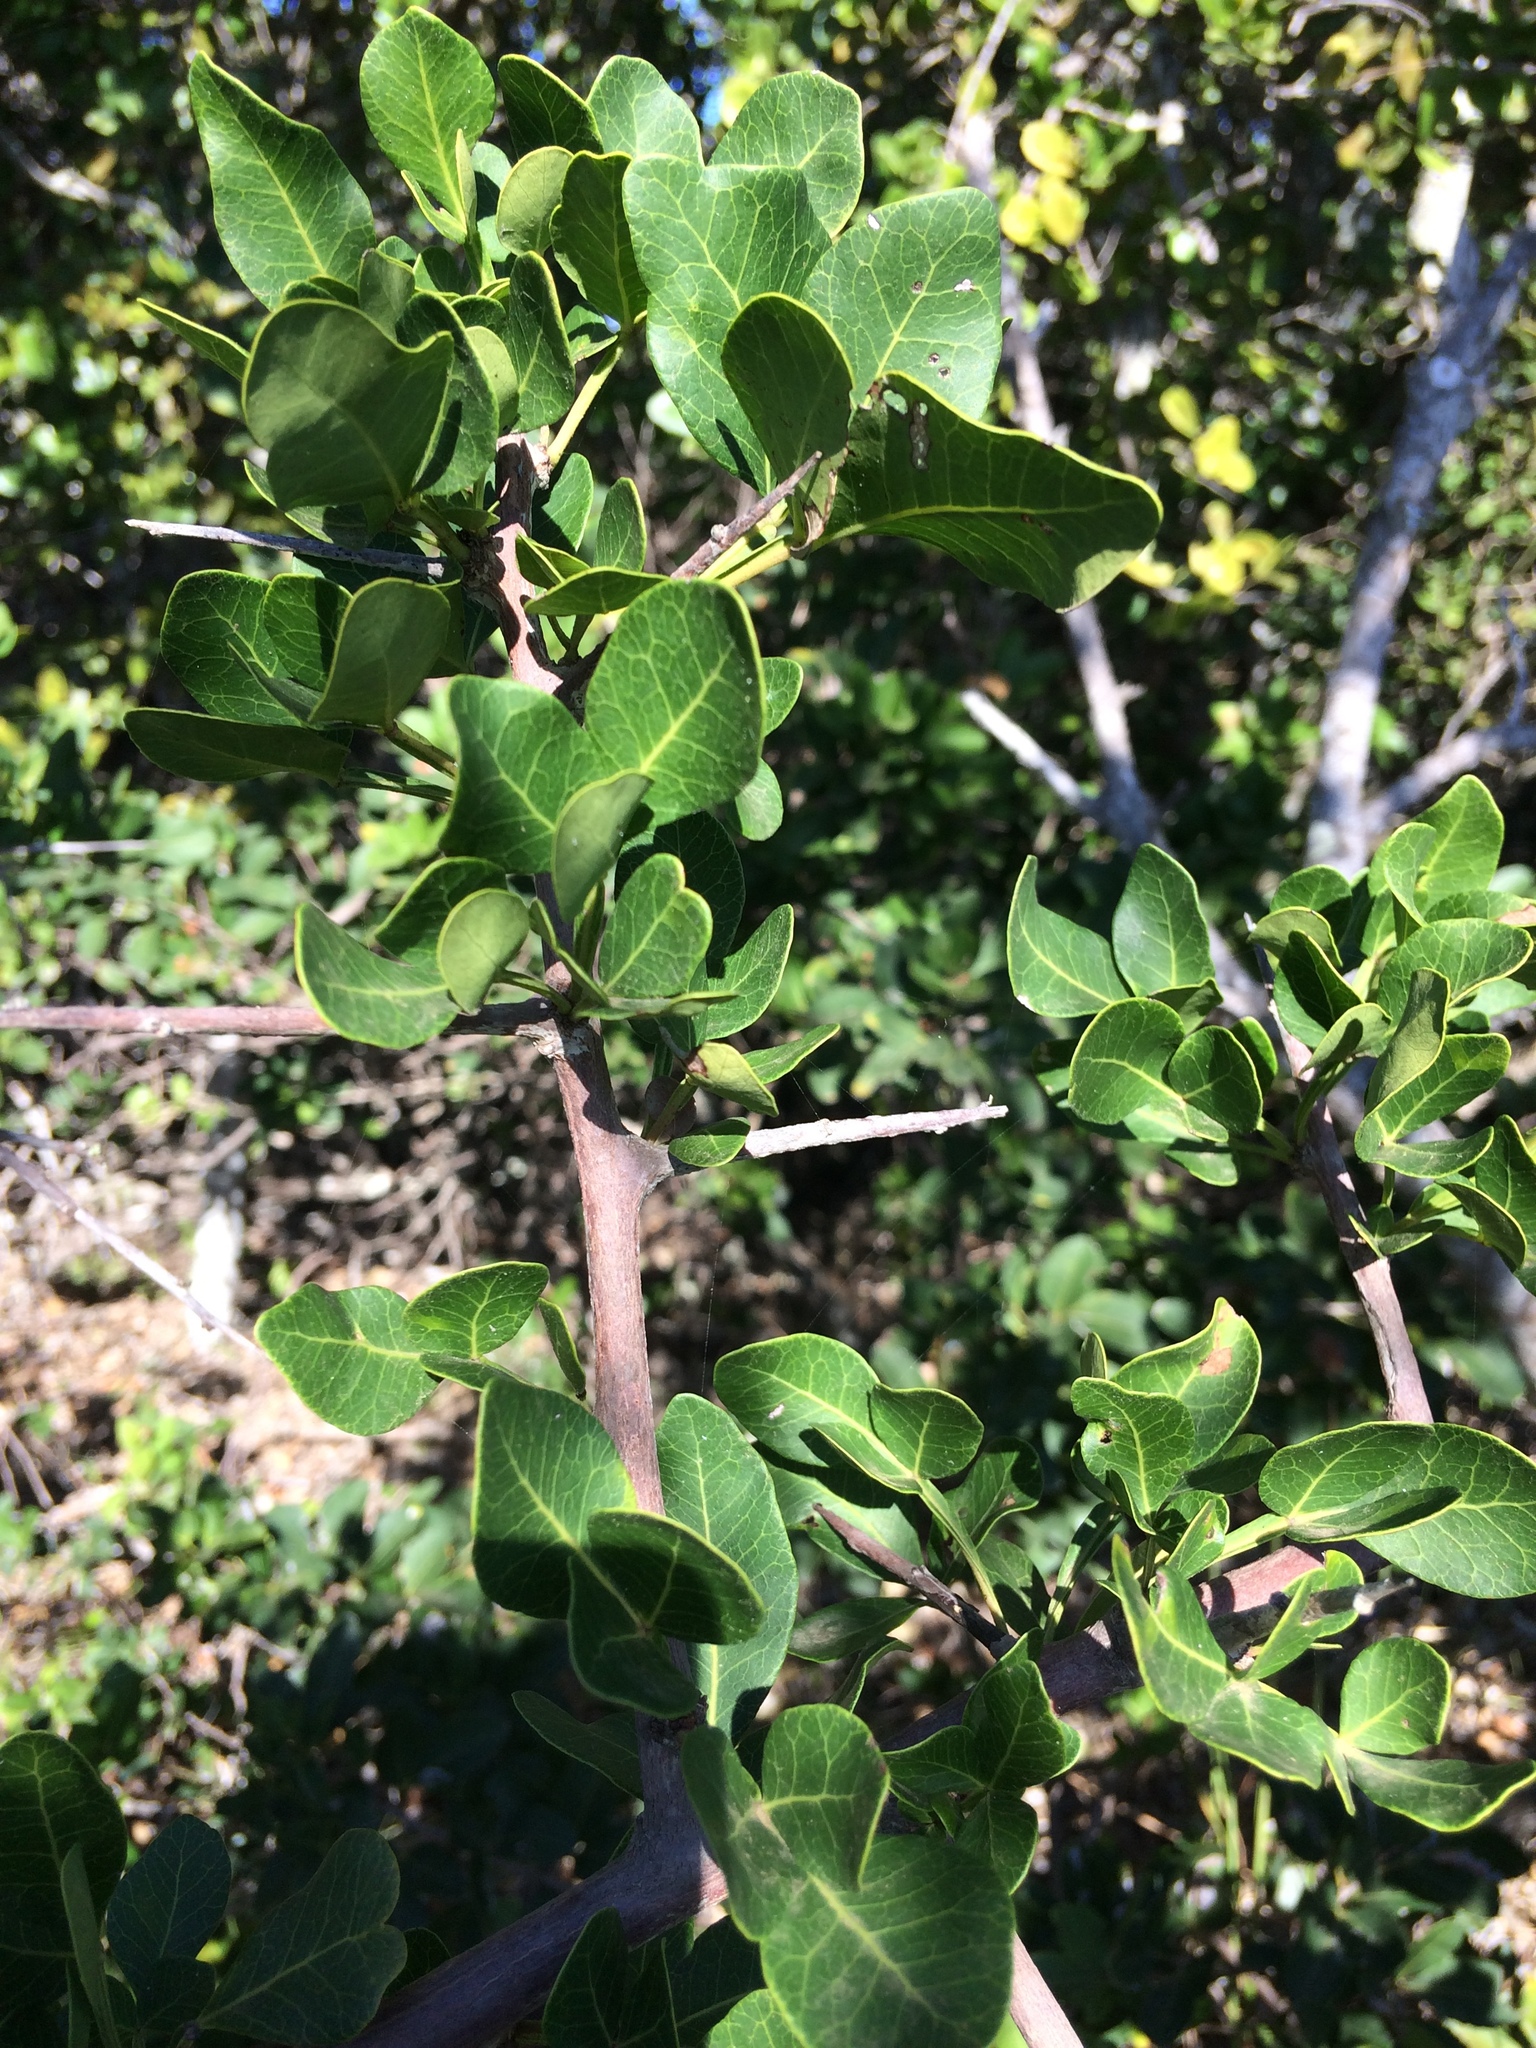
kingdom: Plantae
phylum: Tracheophyta
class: Magnoliopsida
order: Sapindales
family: Anacardiaceae
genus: Searsia
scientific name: Searsia pterota
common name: Winged currant
